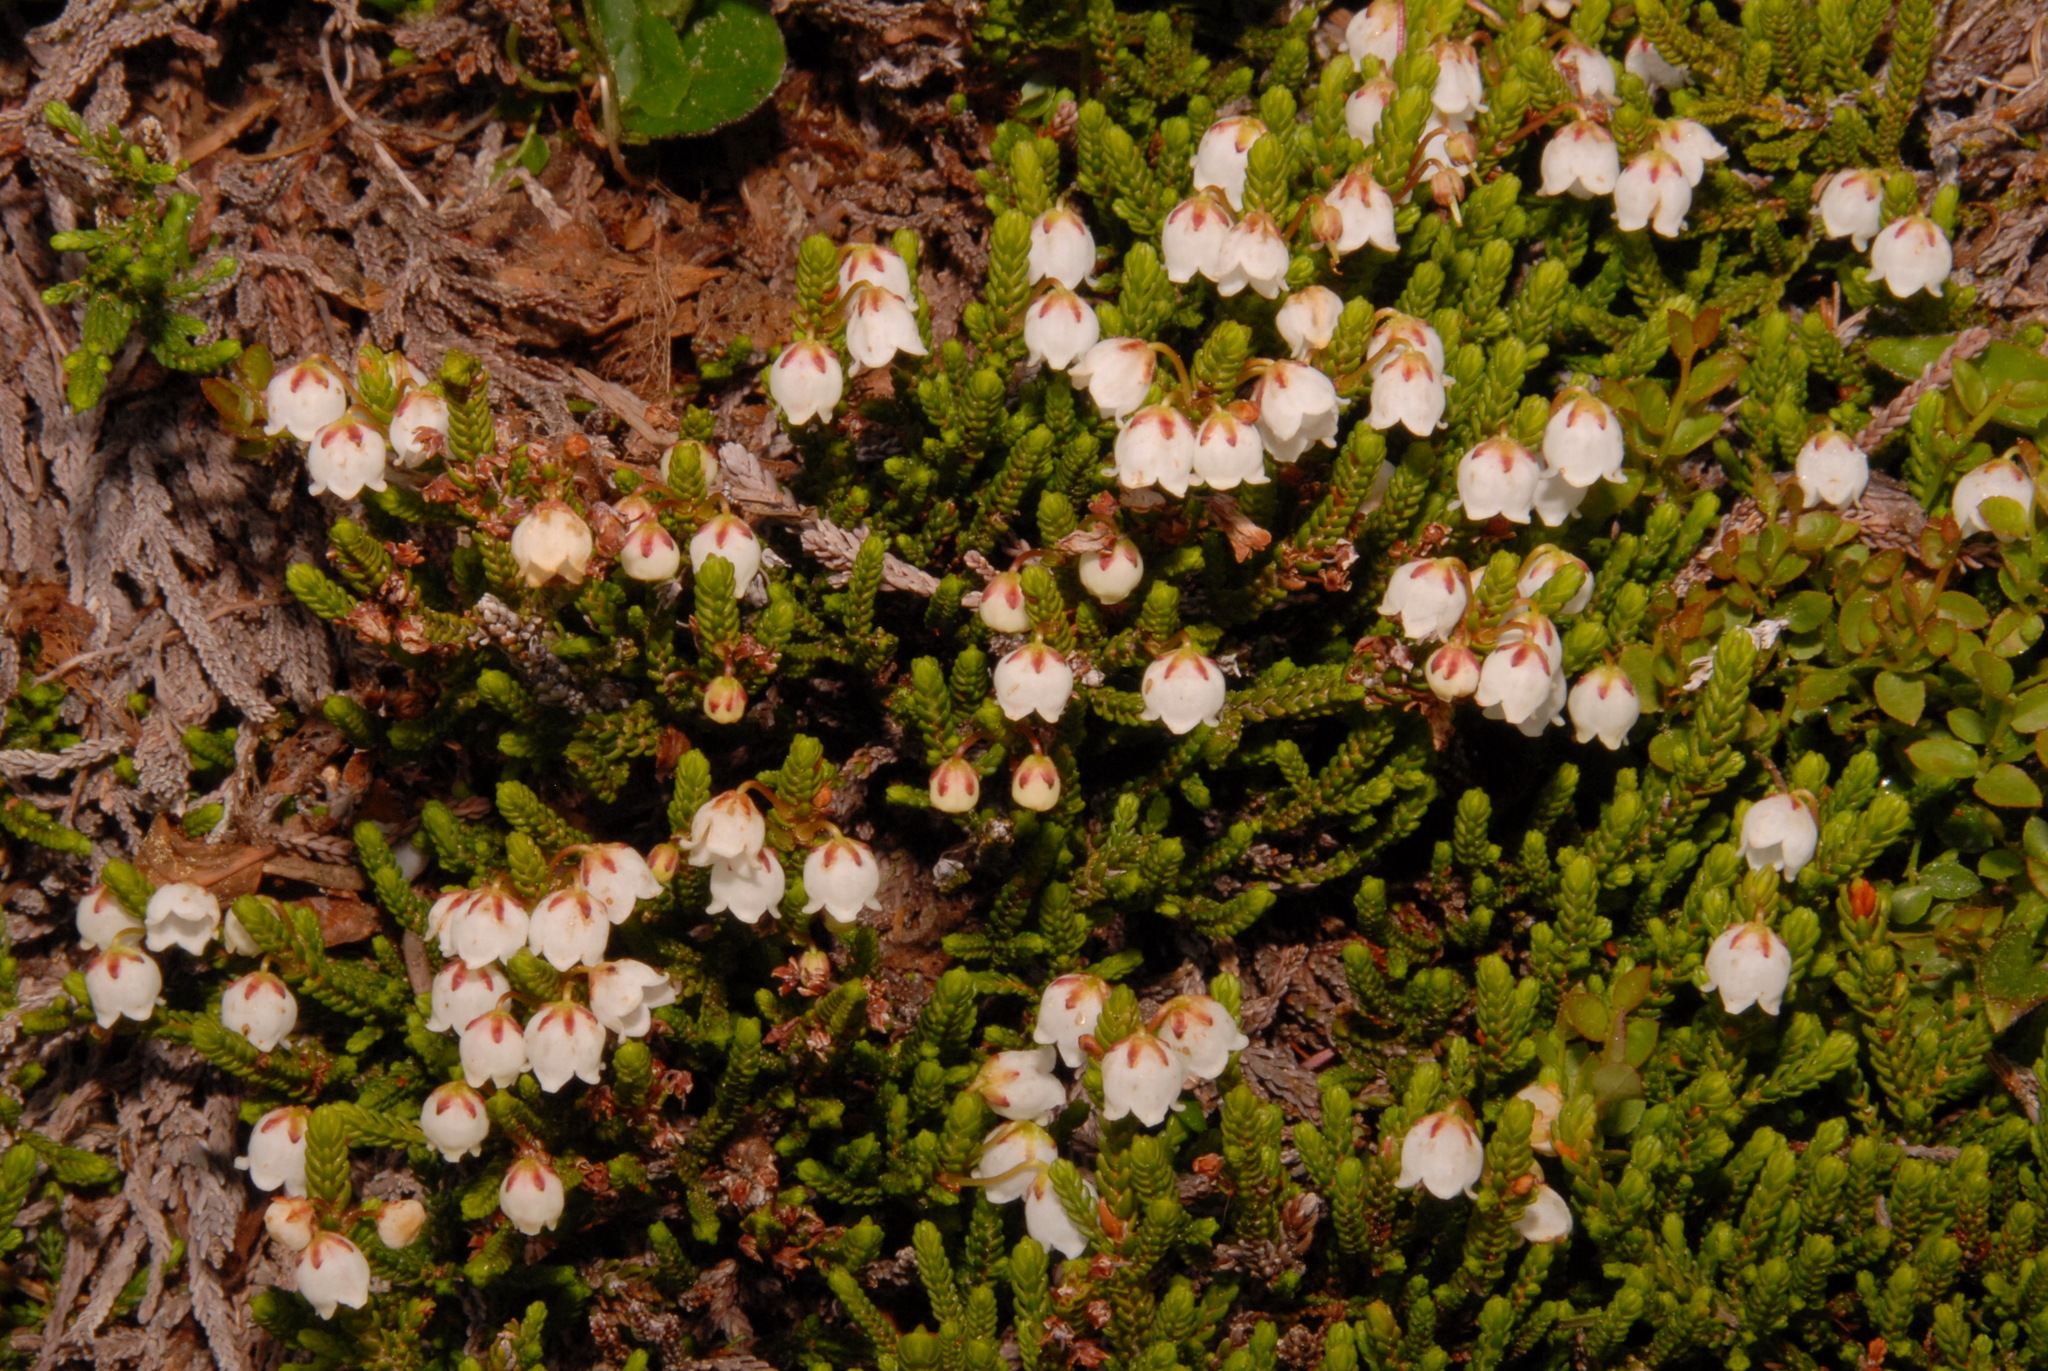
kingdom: Plantae
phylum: Tracheophyta
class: Magnoliopsida
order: Ericales
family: Ericaceae
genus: Cassiope
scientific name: Cassiope mertensiana
